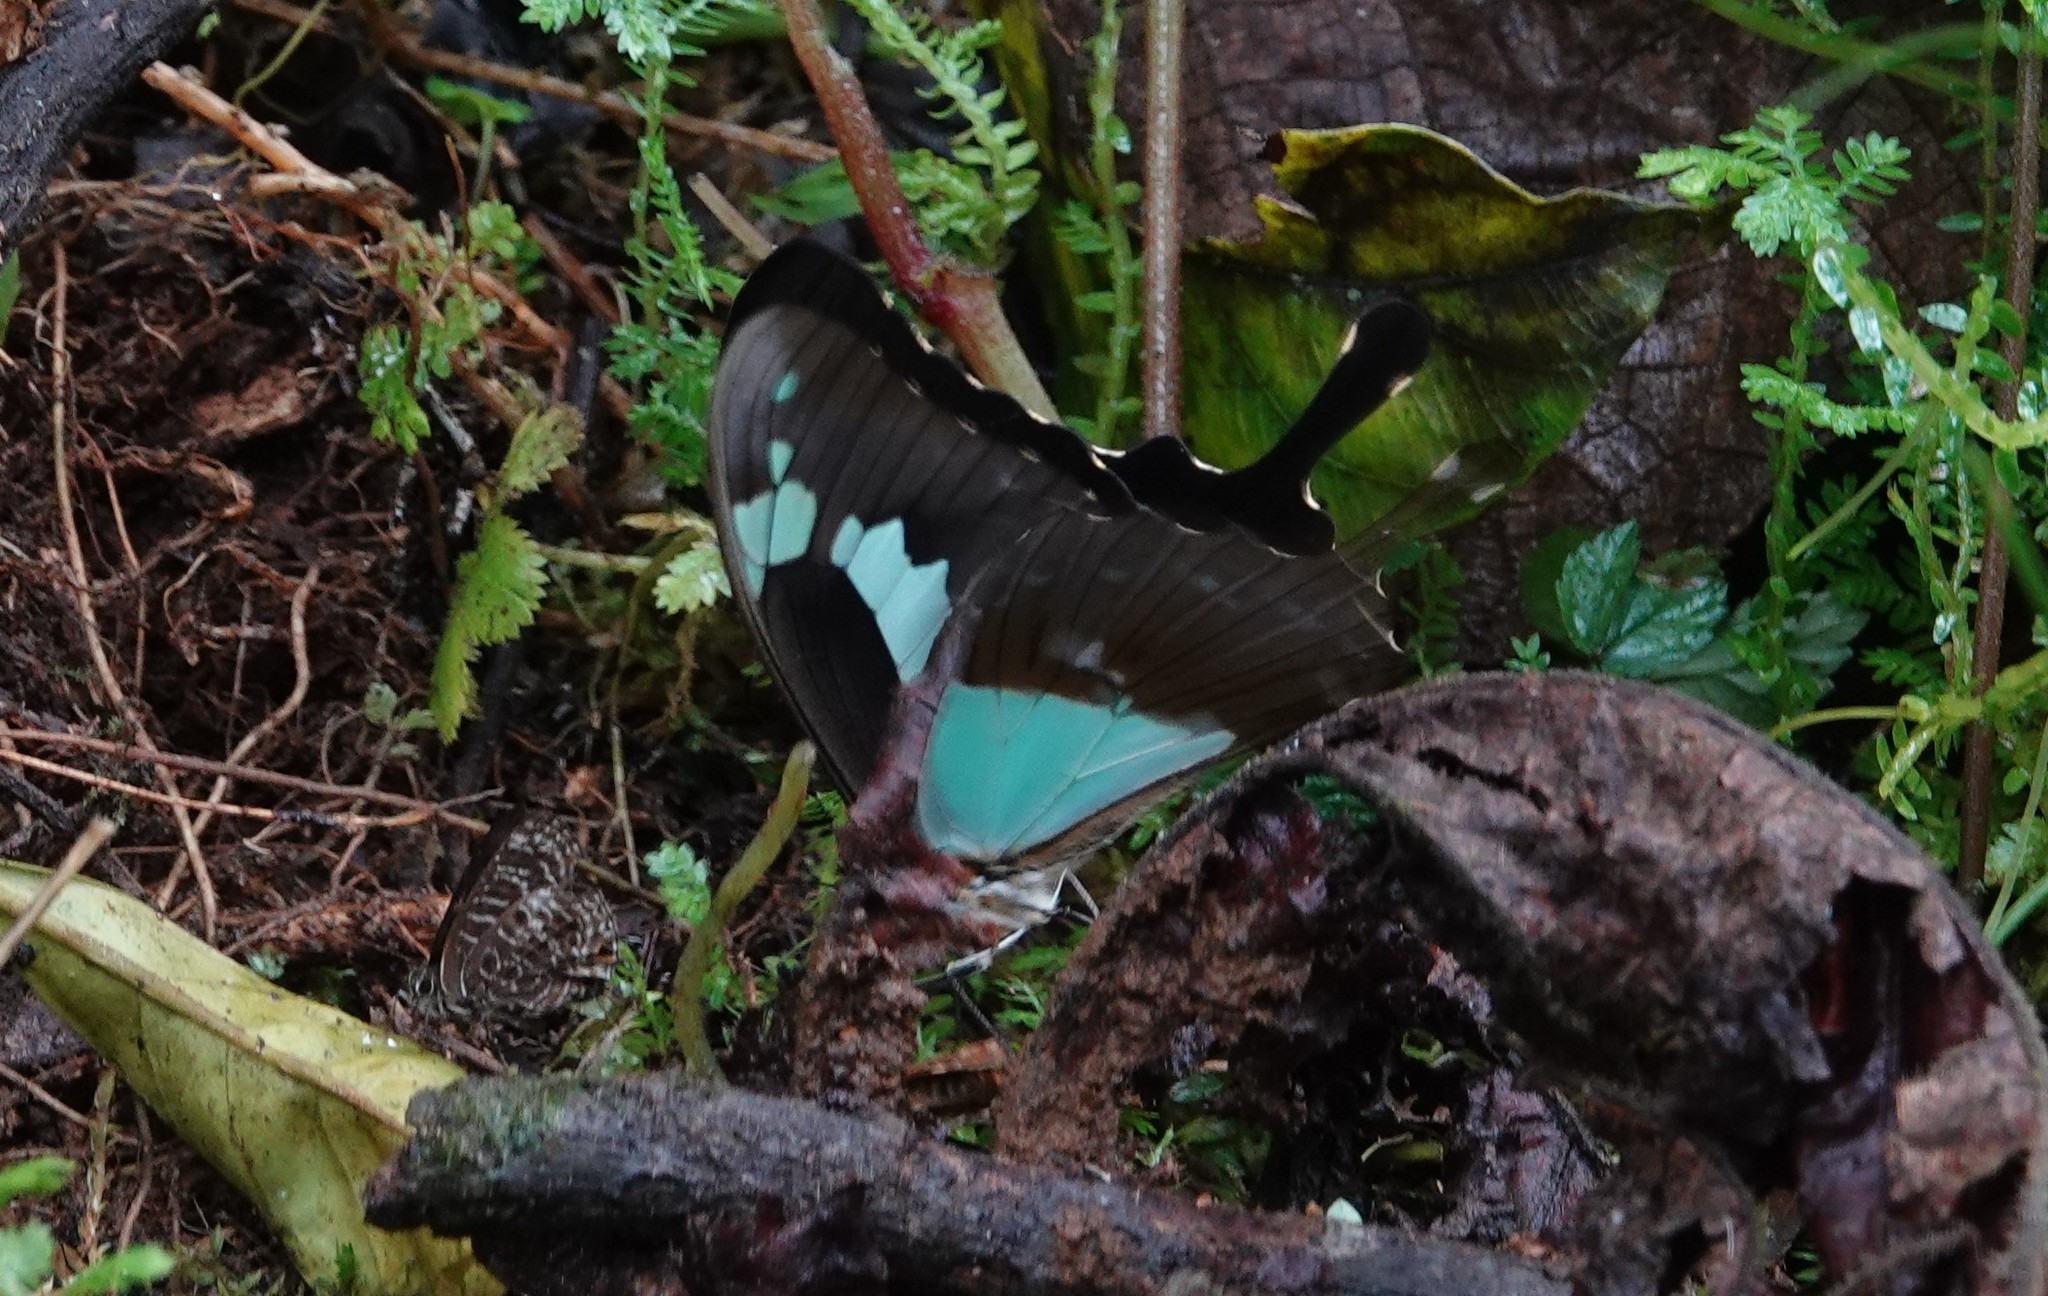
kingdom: Animalia
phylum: Arthropoda
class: Insecta
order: Lepidoptera
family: Papilionidae
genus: Papilio
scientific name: Papilio phorcas
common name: Apple-green swallowtail
